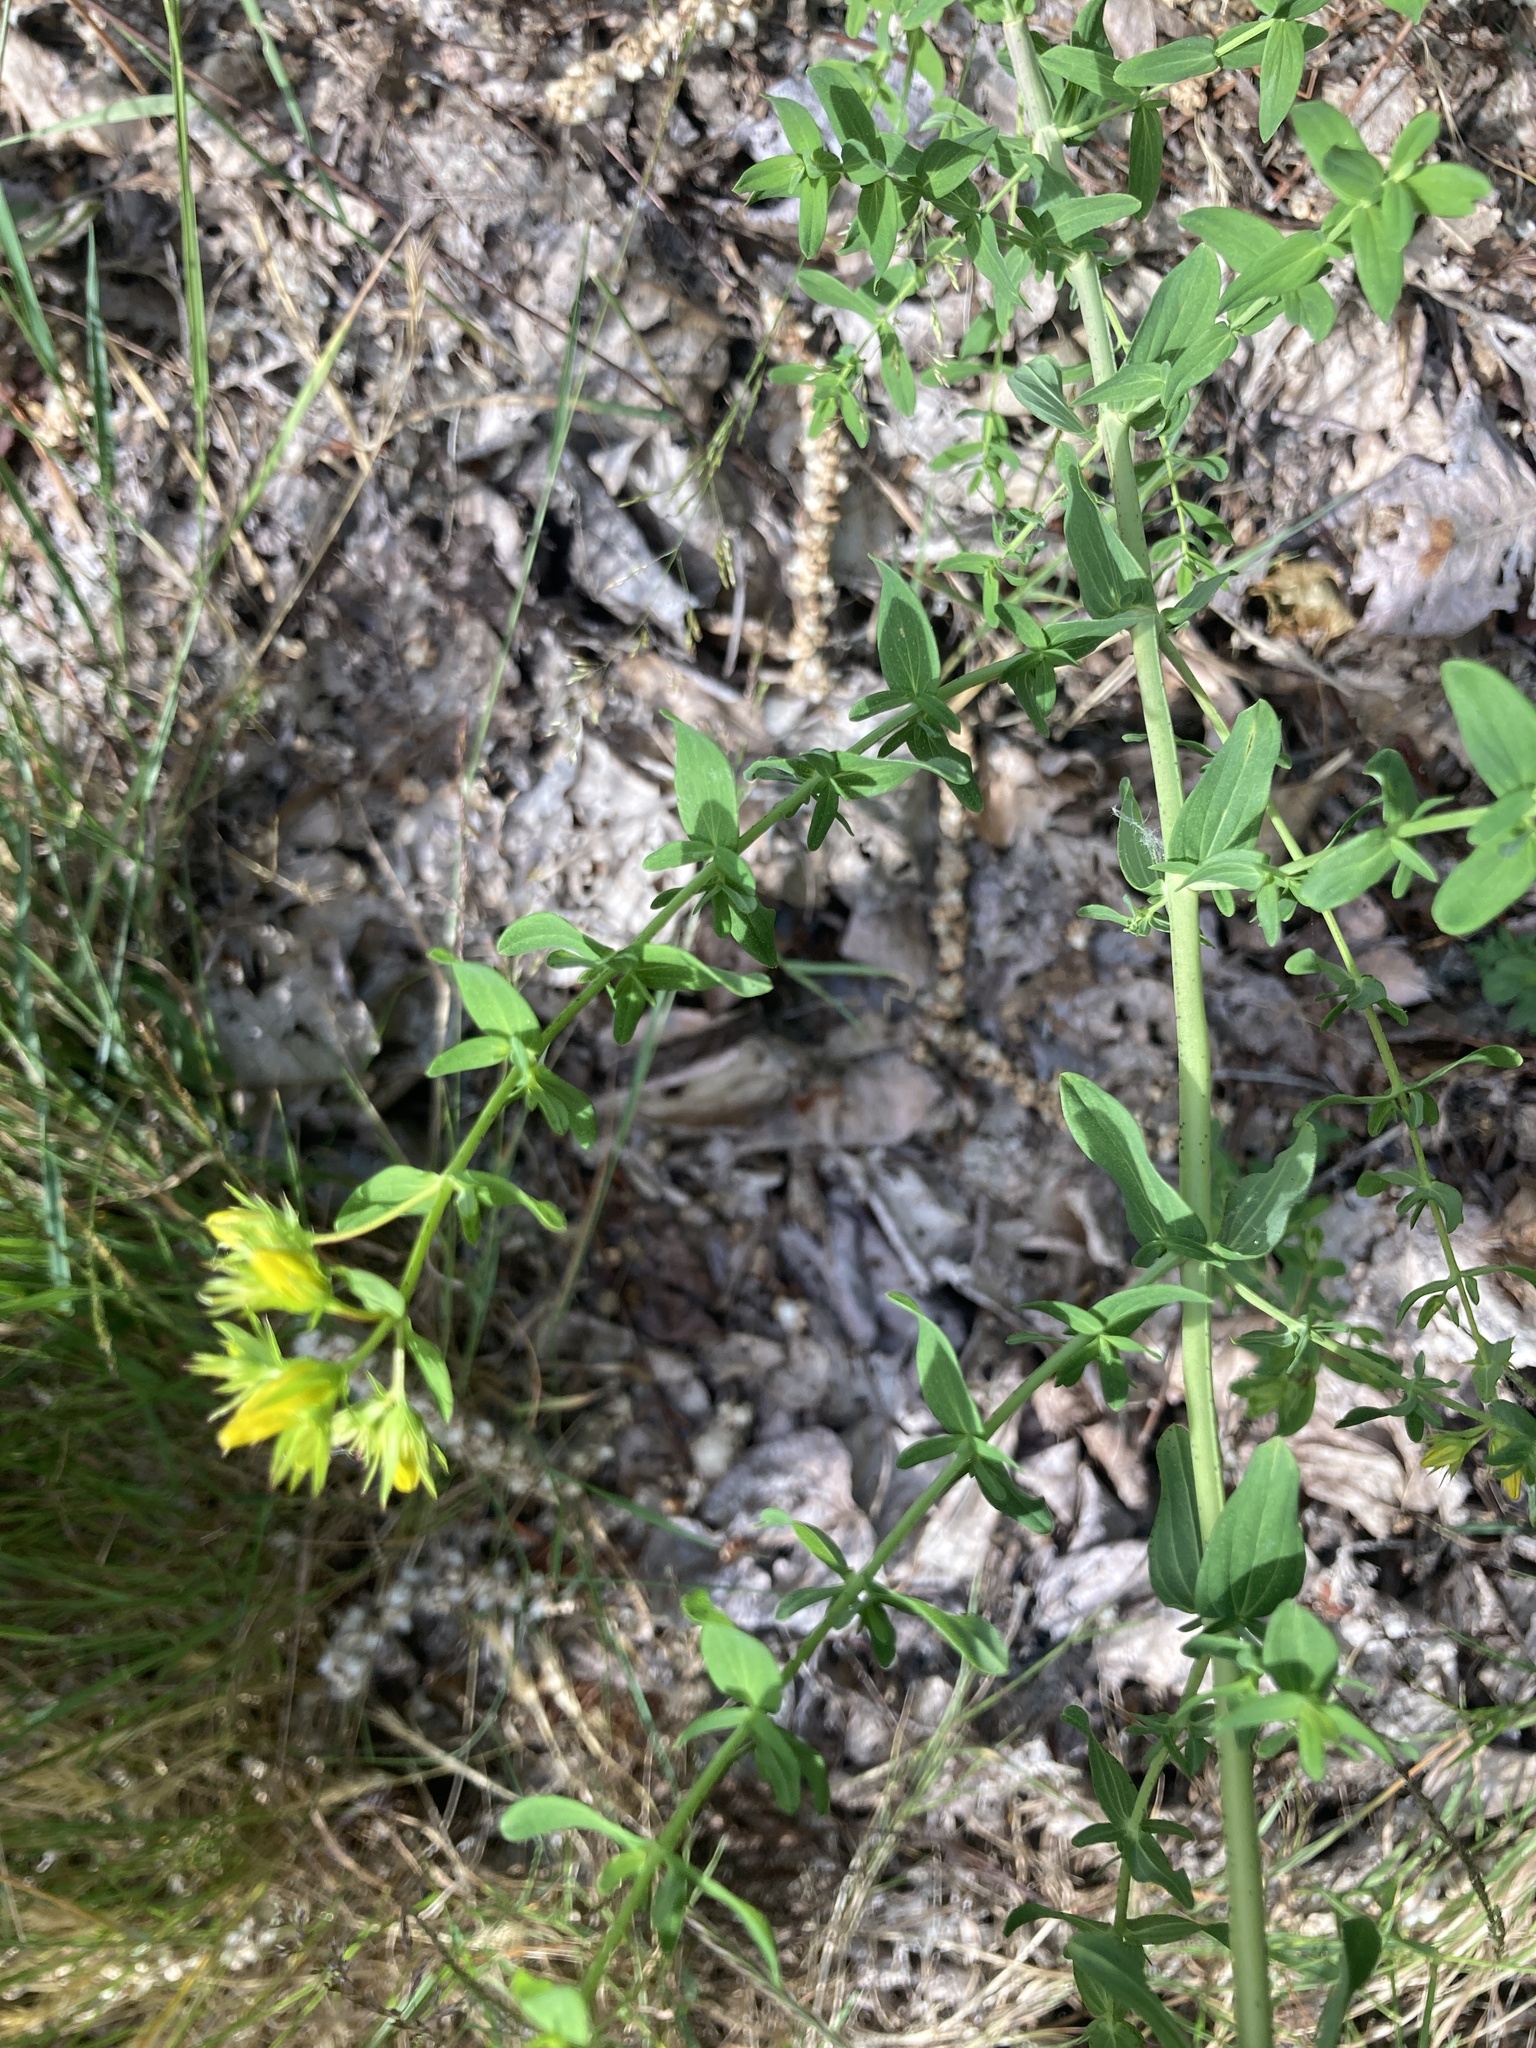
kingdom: Plantae
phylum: Tracheophyta
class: Magnoliopsida
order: Malpighiales
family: Hypericaceae
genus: Hypericum
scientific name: Hypericum perforatum
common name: Common st. johnswort
